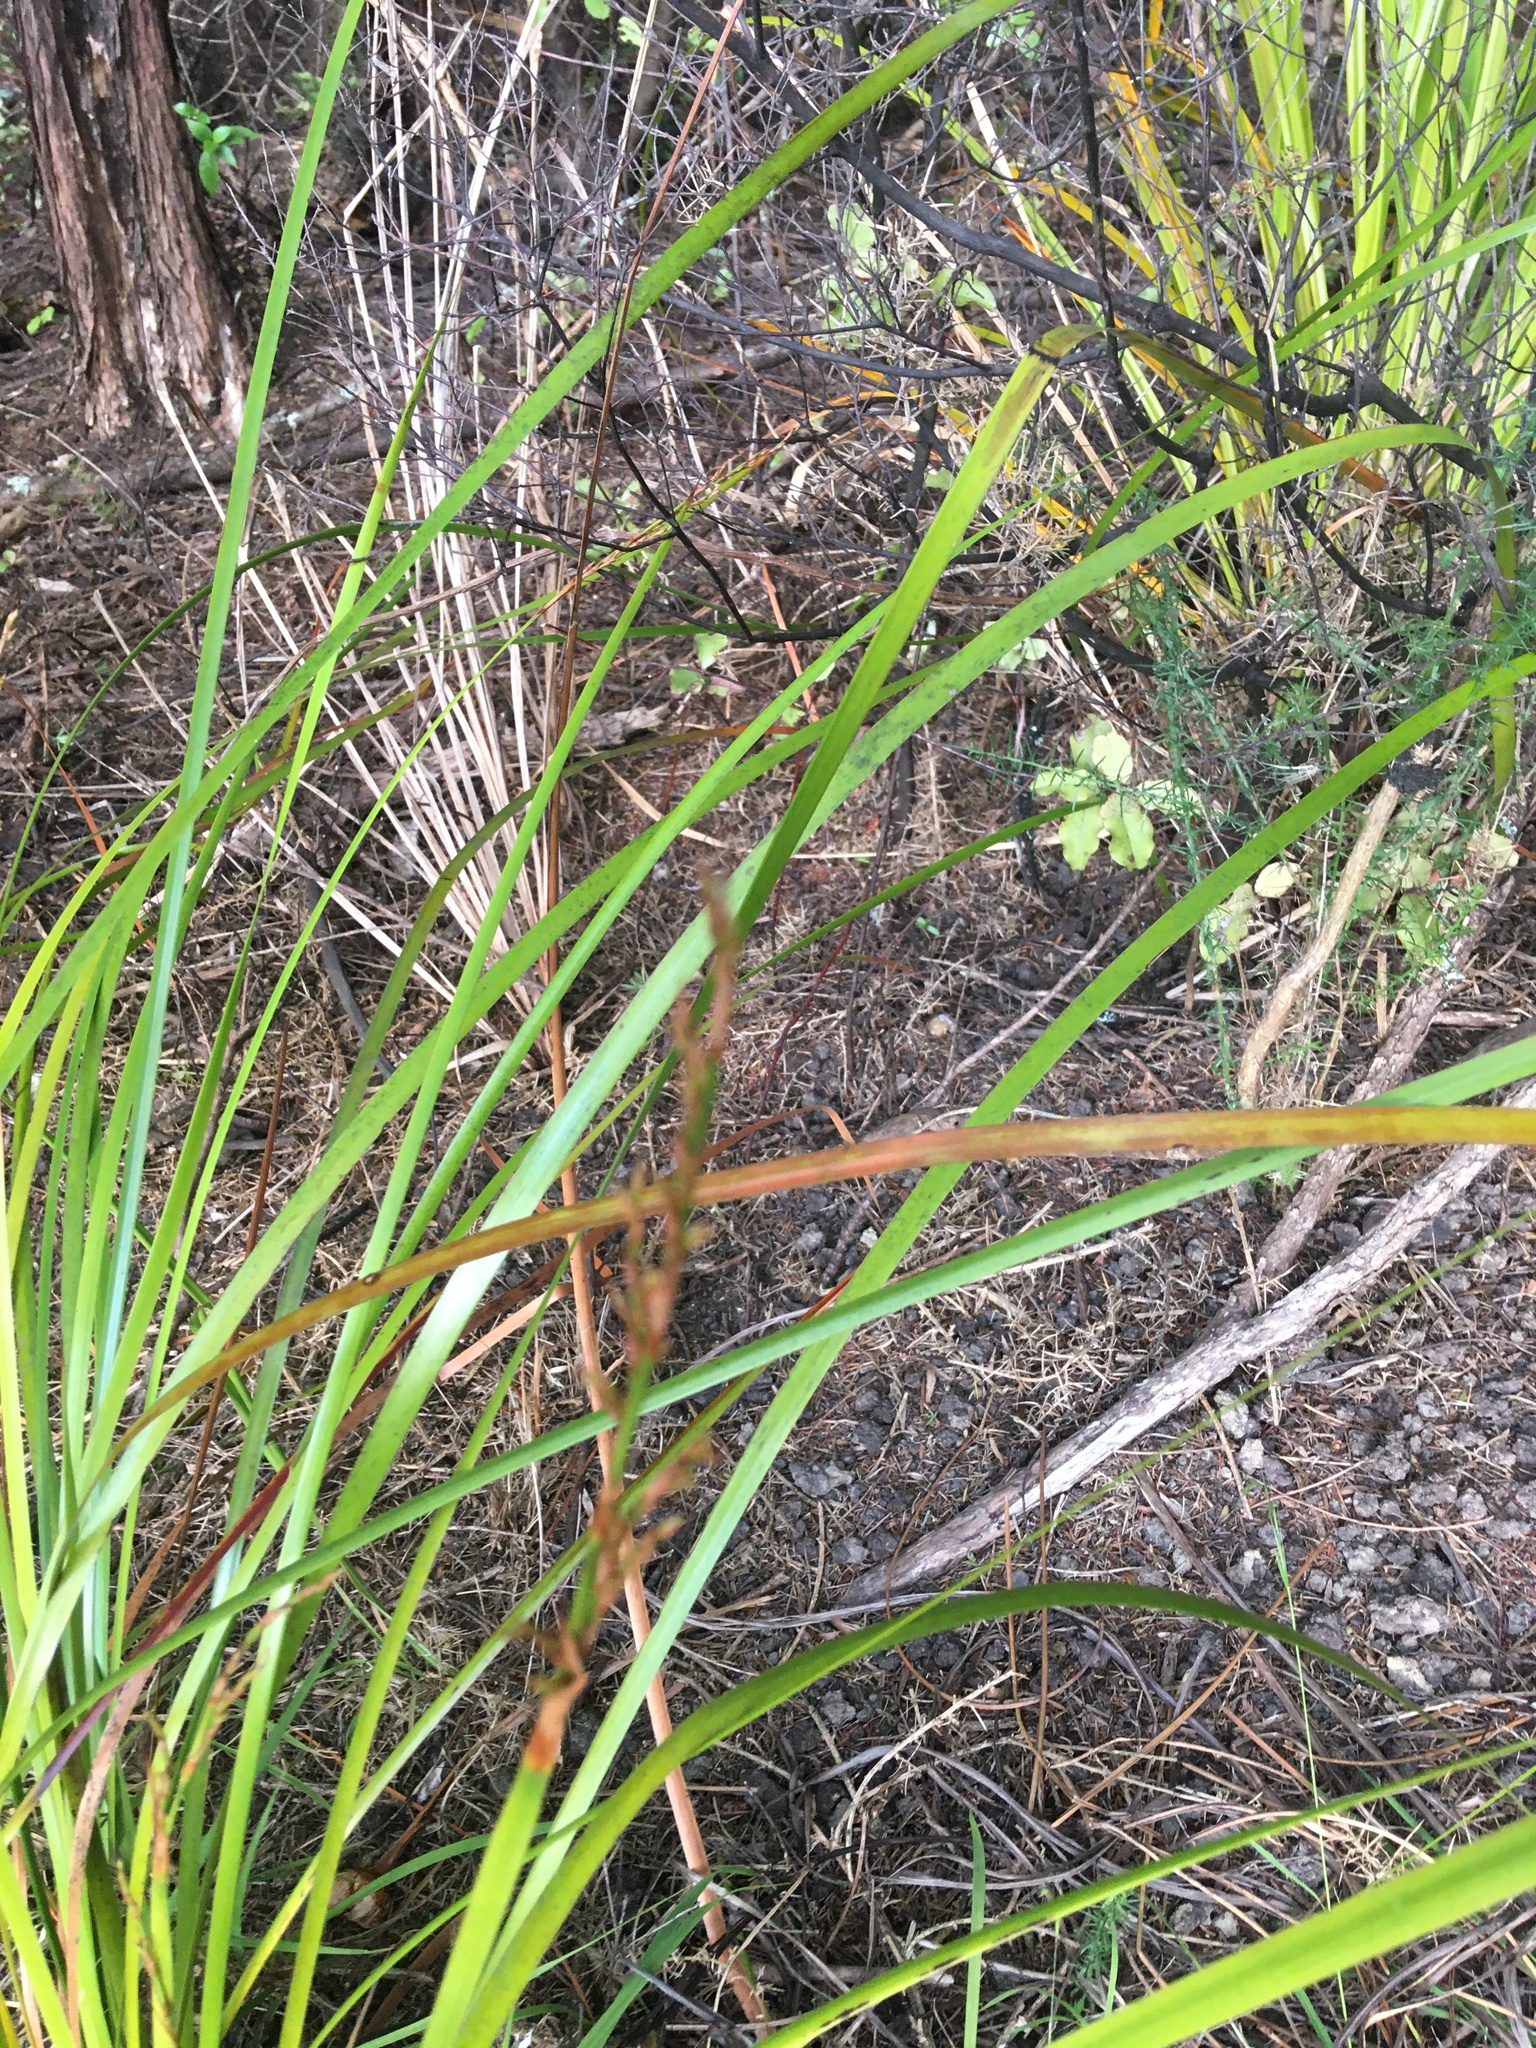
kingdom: Plantae
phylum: Tracheophyta
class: Liliopsida
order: Poales
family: Cyperaceae
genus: Lepidosperma
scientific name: Lepidosperma laterale
